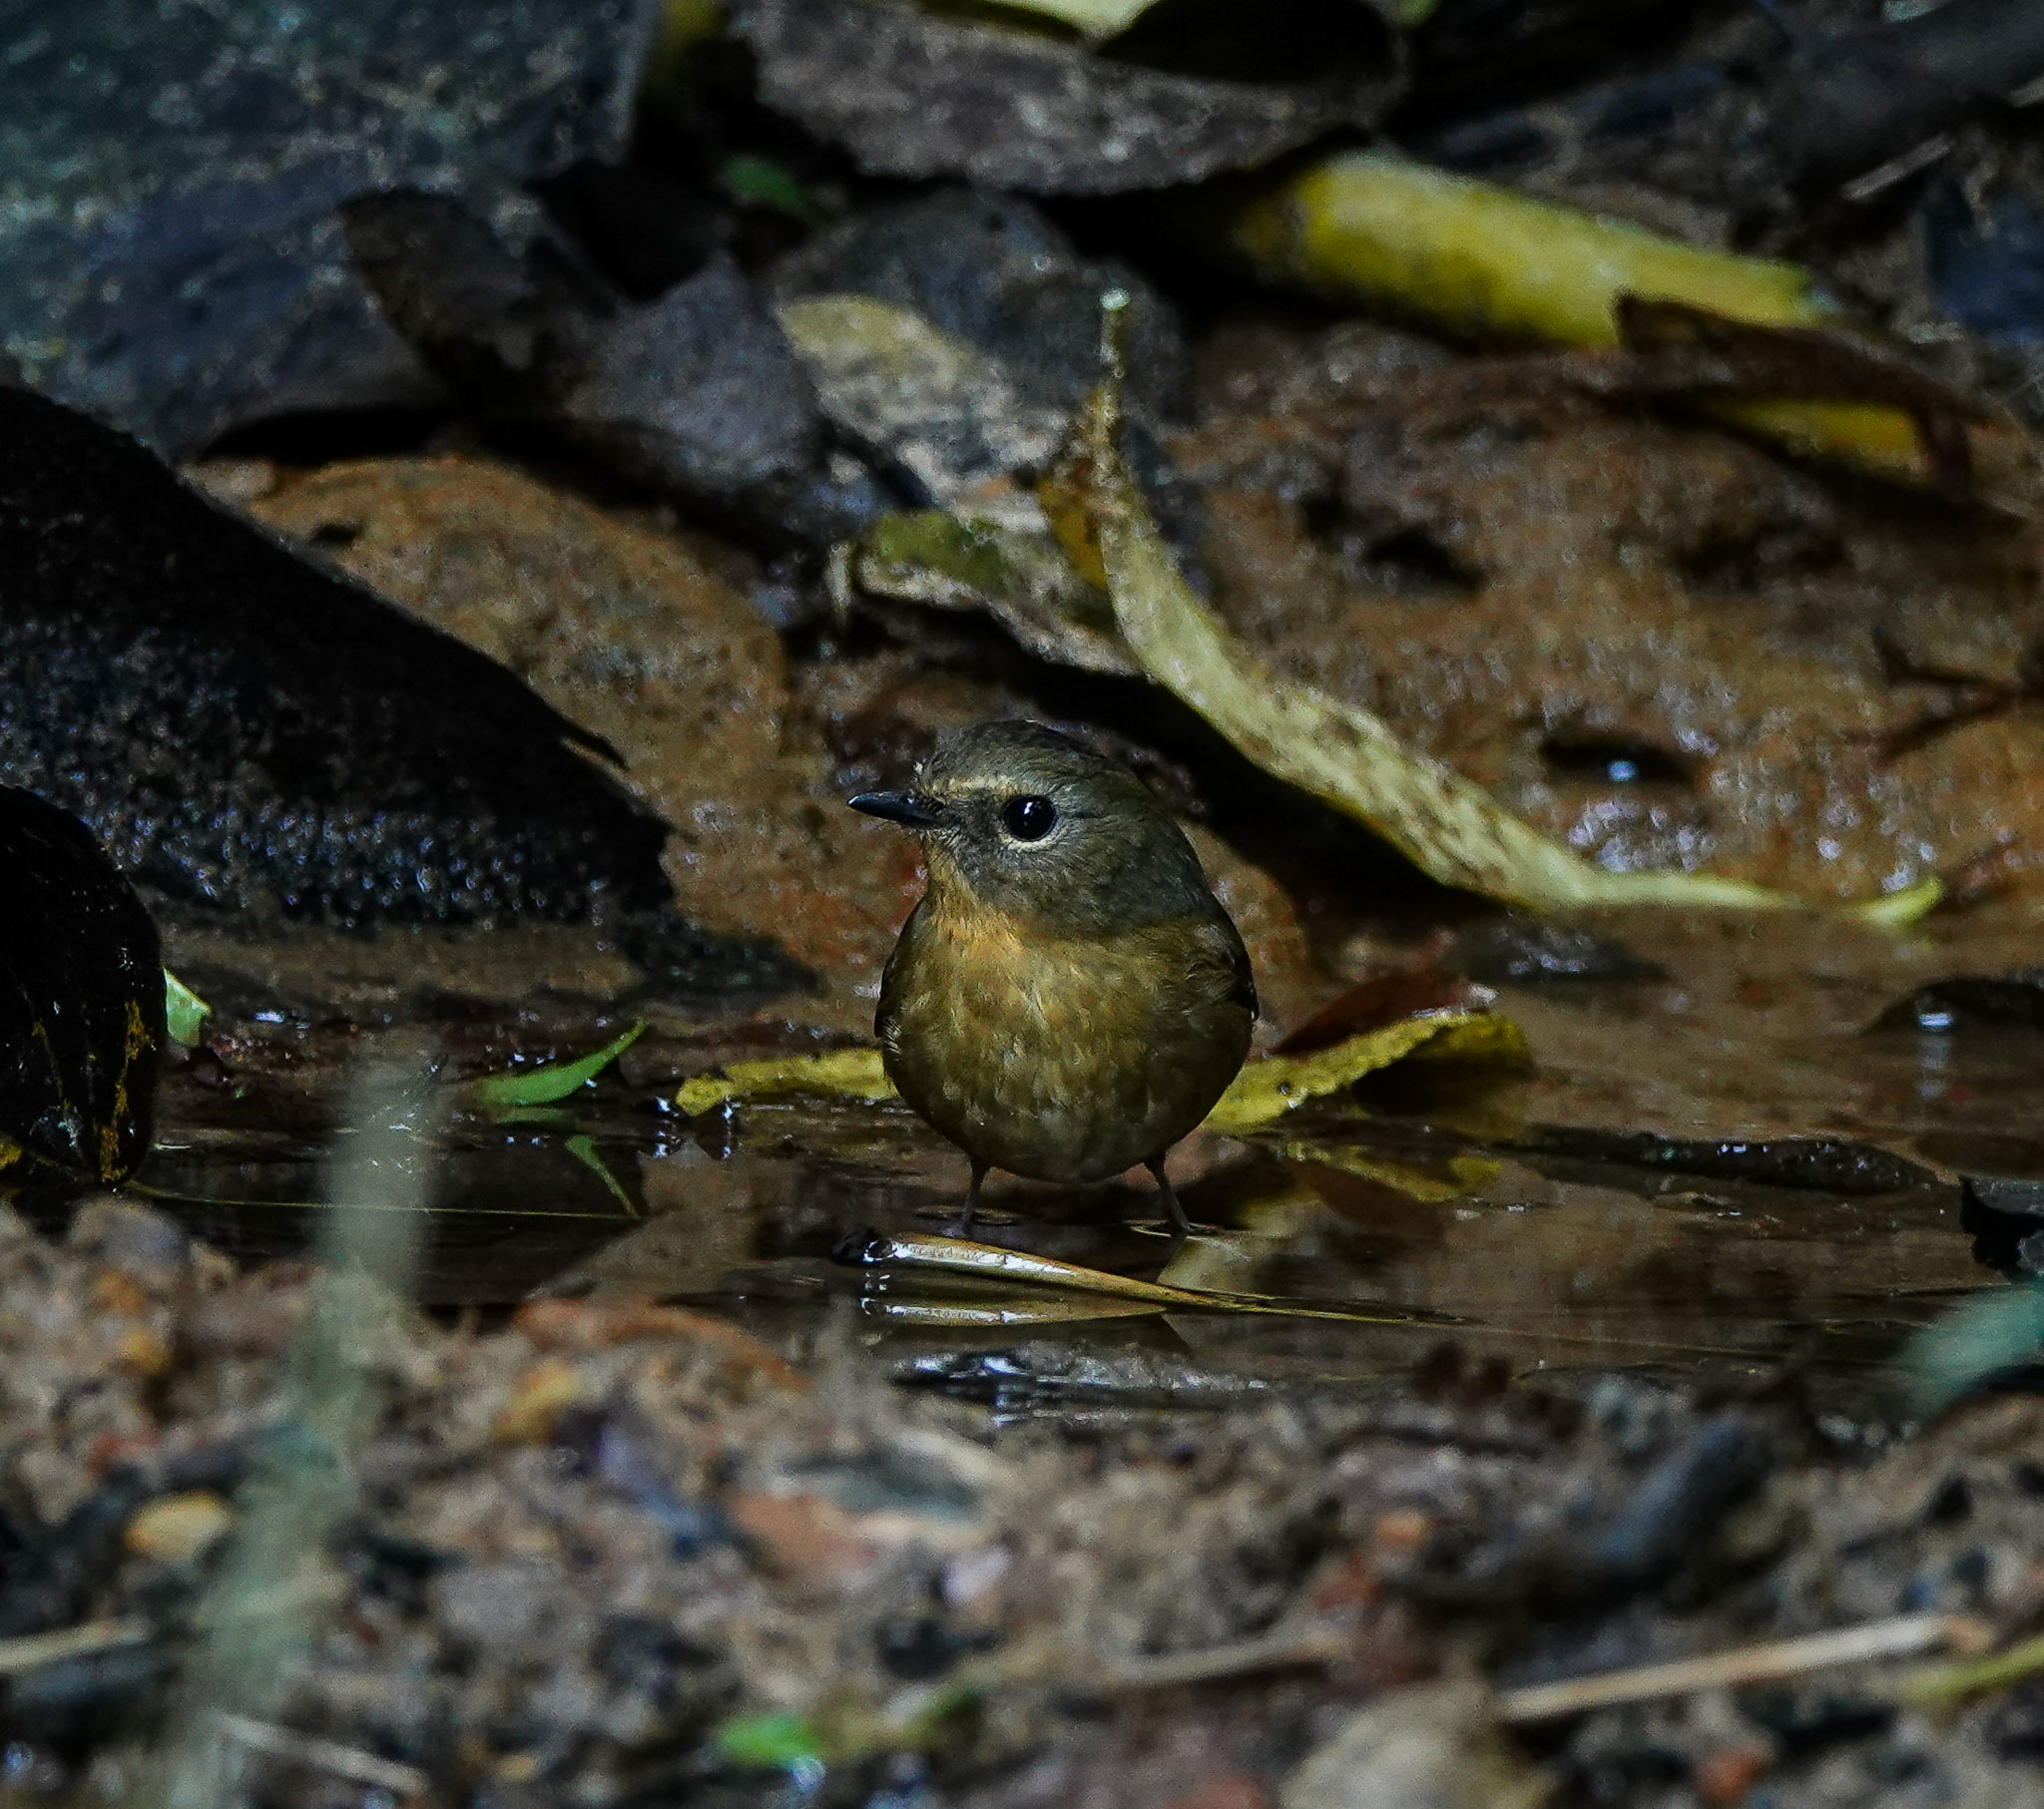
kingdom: Animalia
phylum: Chordata
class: Aves
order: Passeriformes
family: Muscicapidae
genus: Ficedula
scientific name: Ficedula hyperythra
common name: Snowy-browed flycatcher
